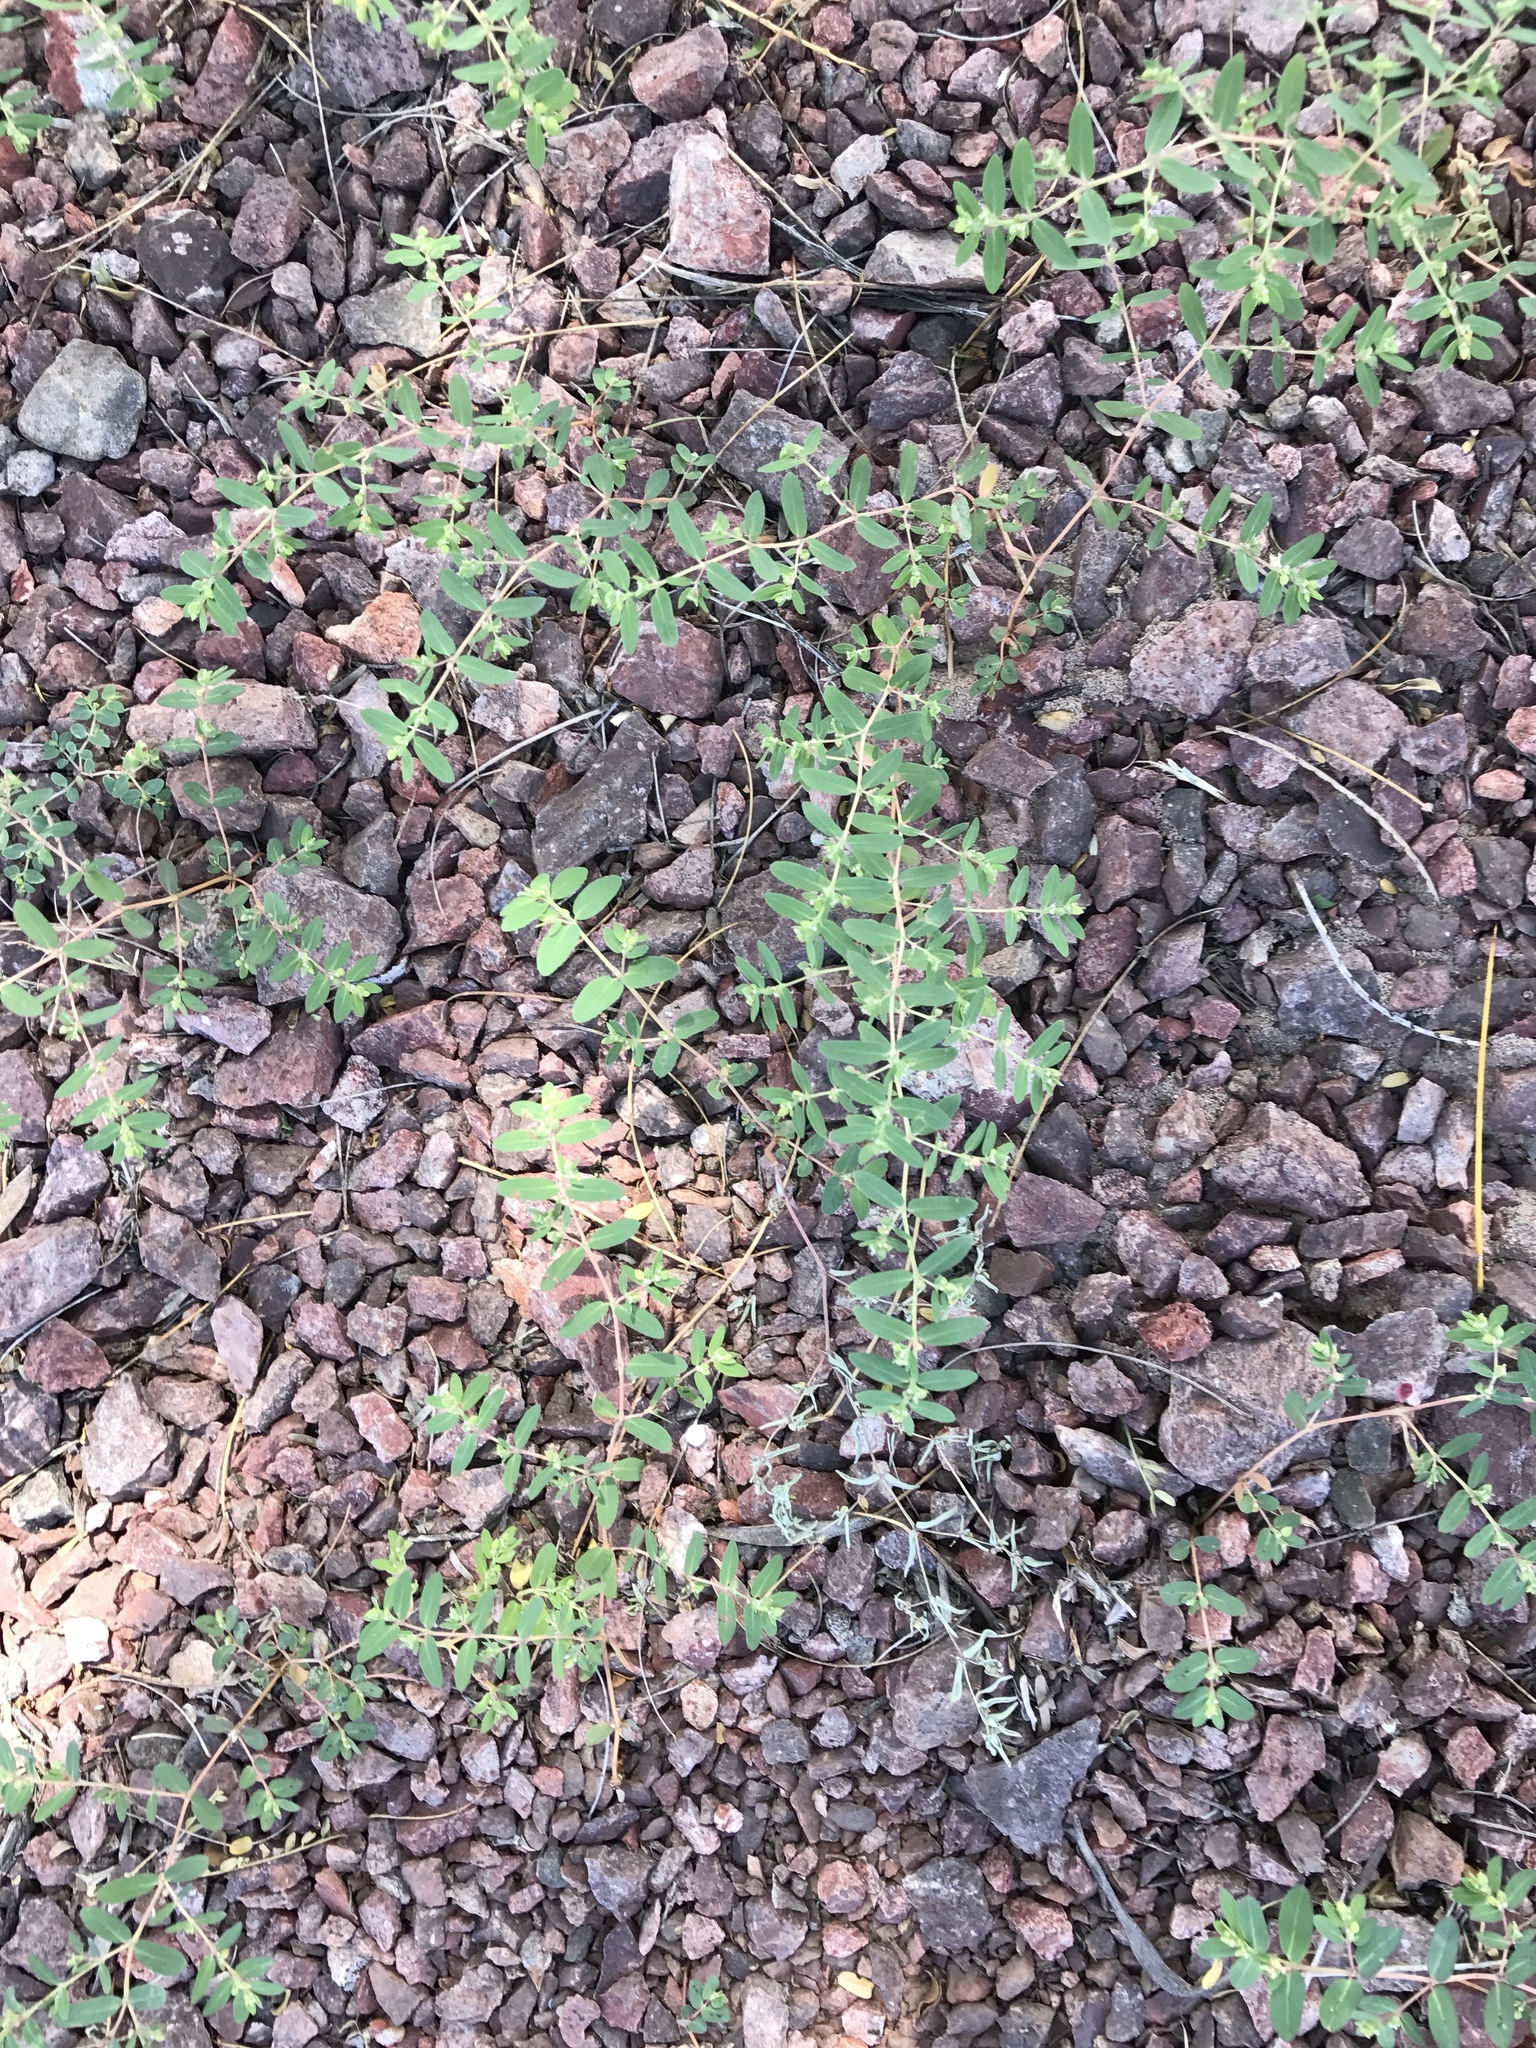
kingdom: Plantae
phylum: Tracheophyta
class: Magnoliopsida
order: Malpighiales
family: Euphorbiaceae
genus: Euphorbia
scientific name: Euphorbia abramsiana
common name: Abram's spurge
